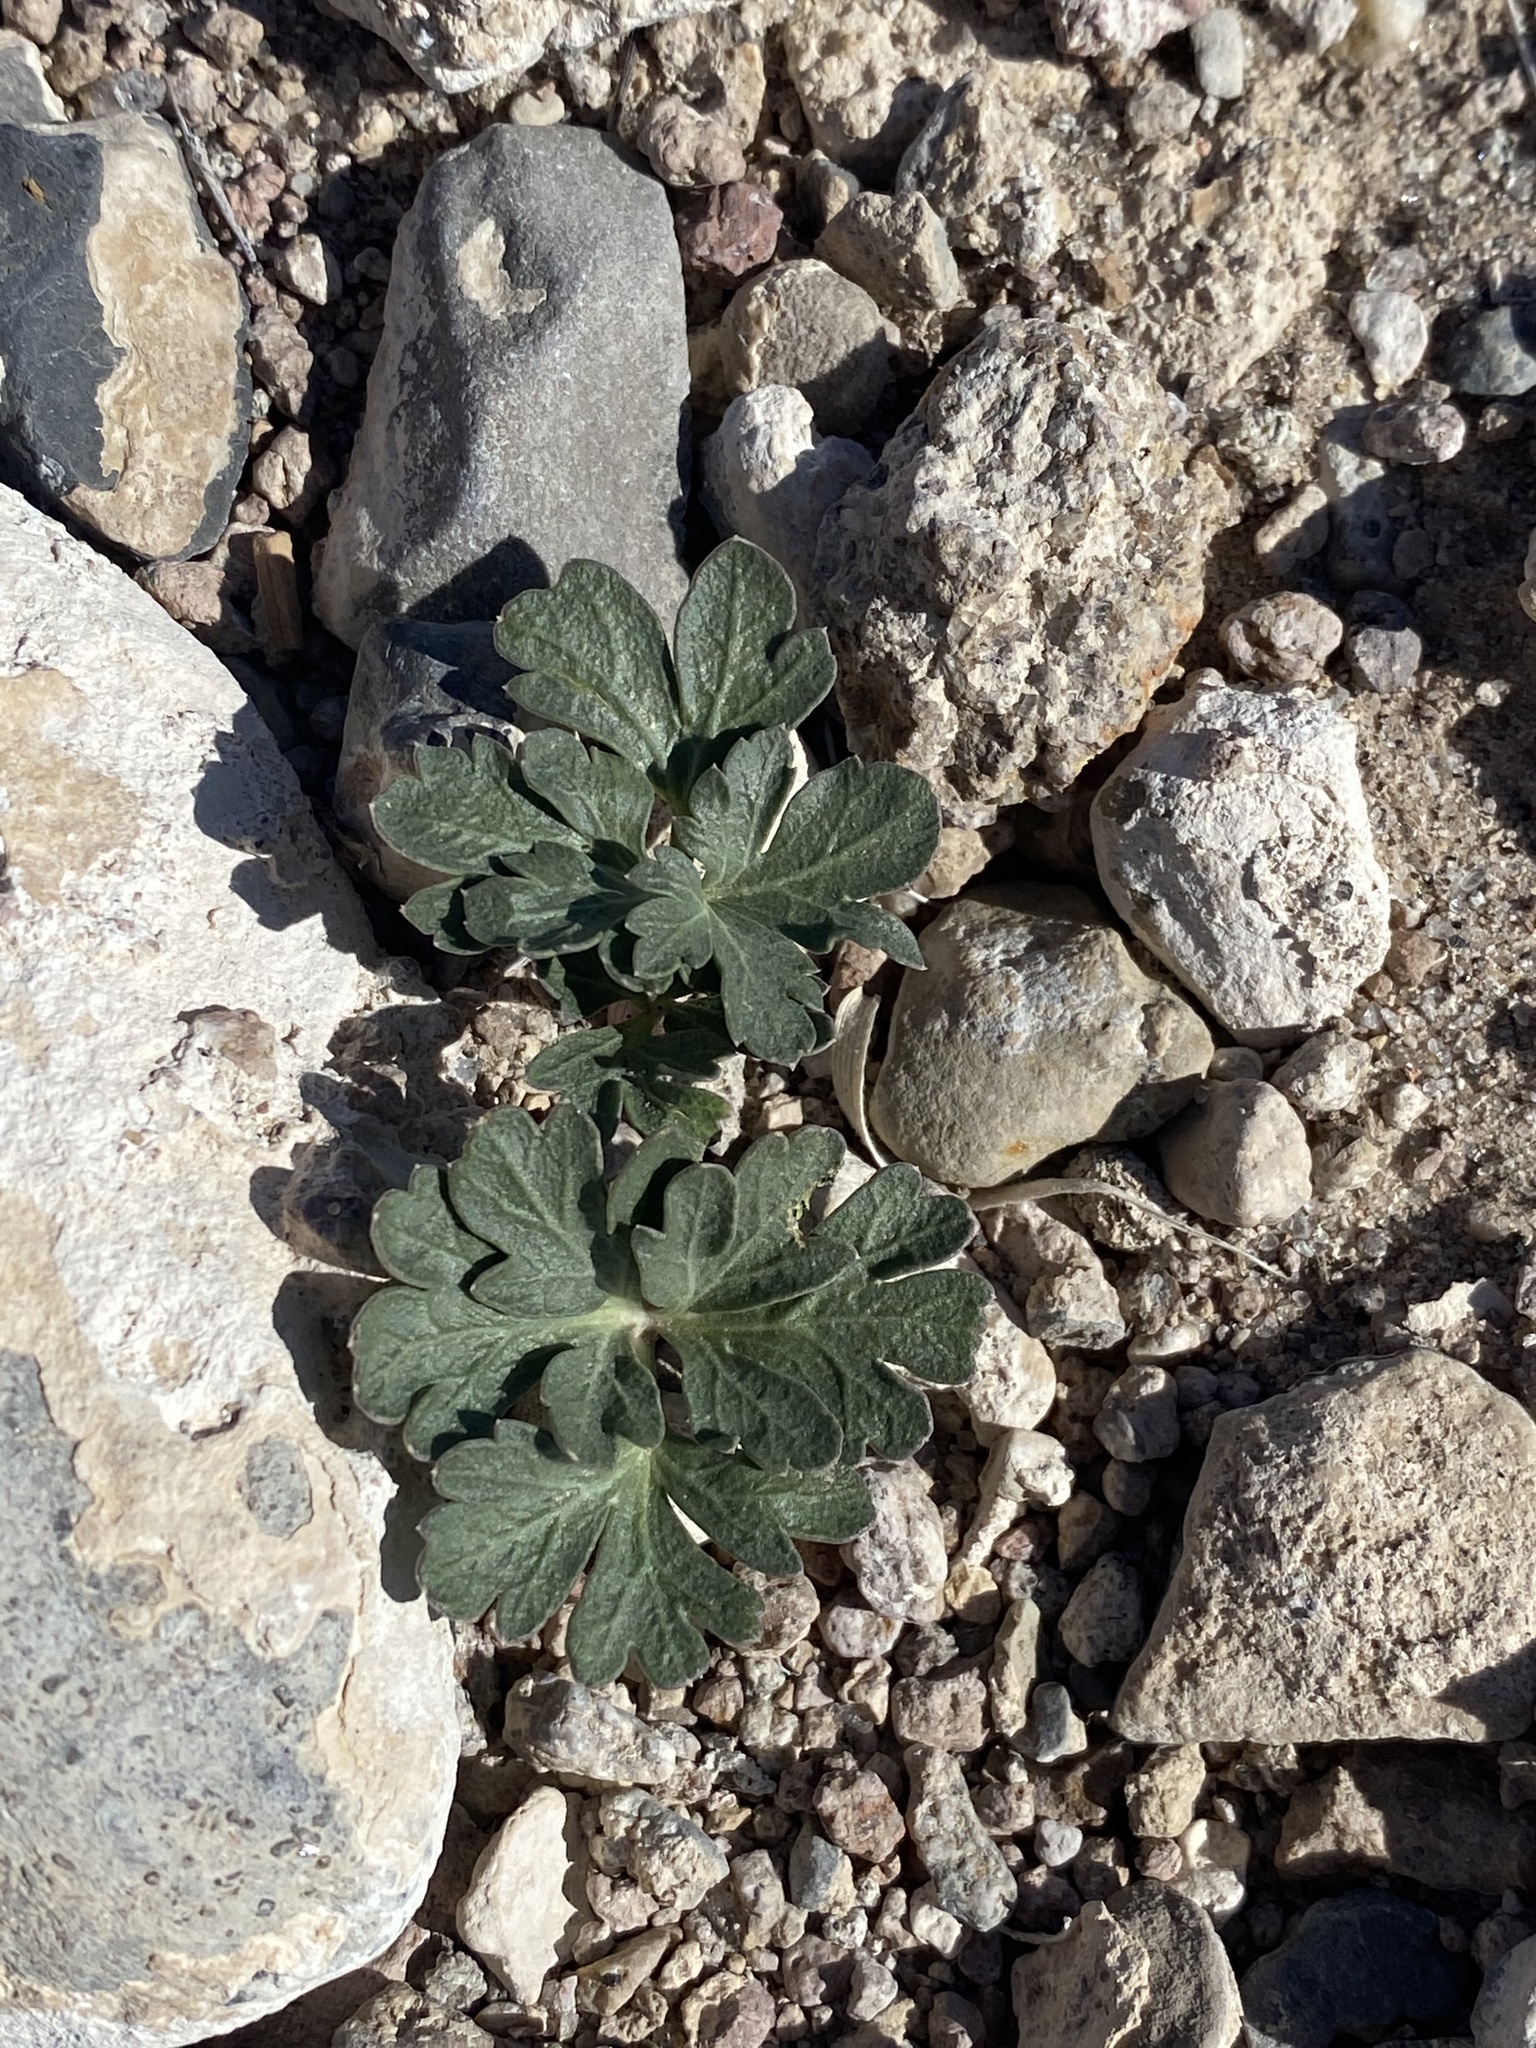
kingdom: Plantae
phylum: Tracheophyta
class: Magnoliopsida
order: Apiales
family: Apiaceae
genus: Cymopterus
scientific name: Cymopterus ripleyi
